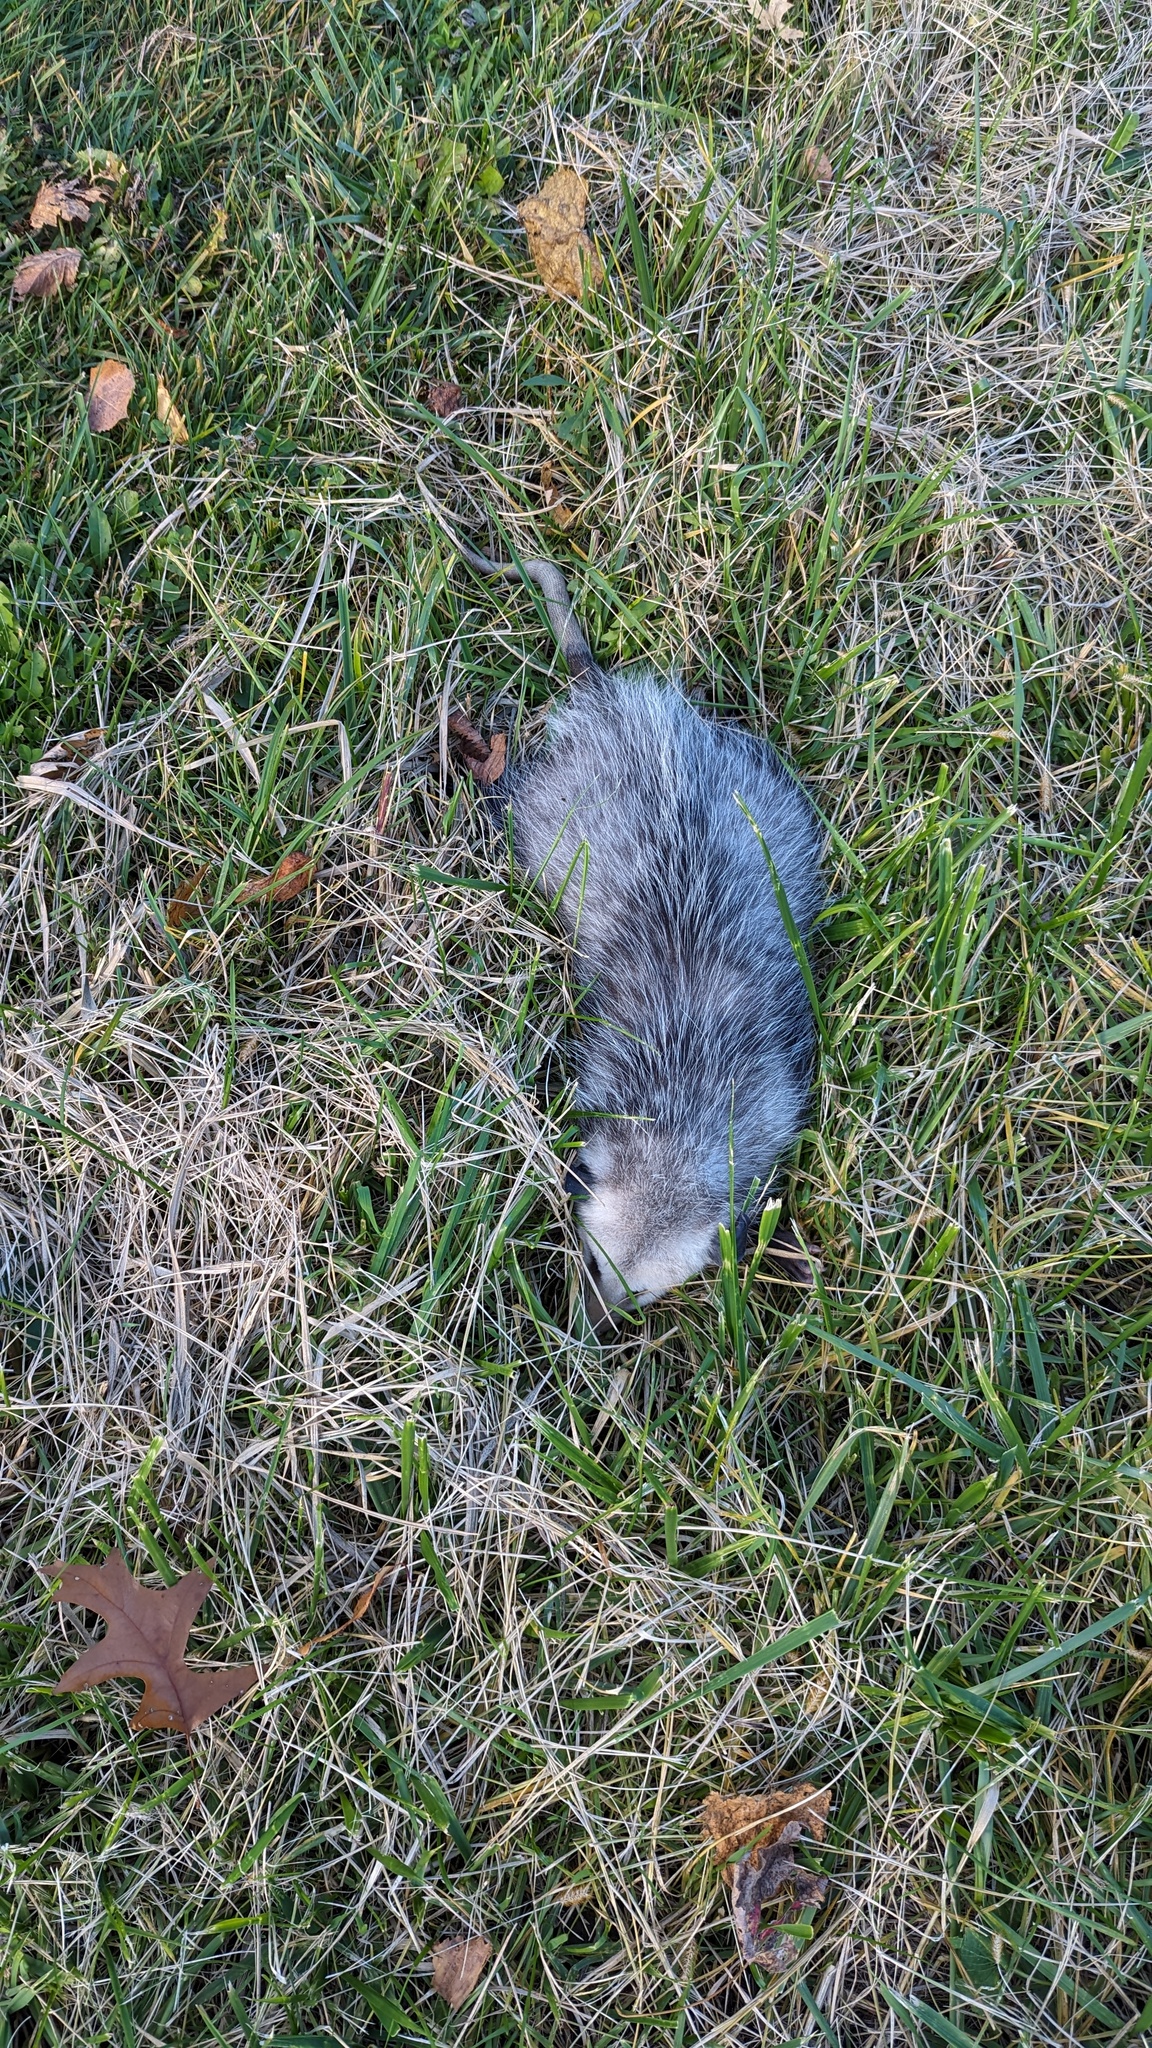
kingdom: Animalia
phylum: Chordata
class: Mammalia
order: Didelphimorphia
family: Didelphidae
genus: Didelphis
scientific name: Didelphis virginiana
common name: Virginia opossum
